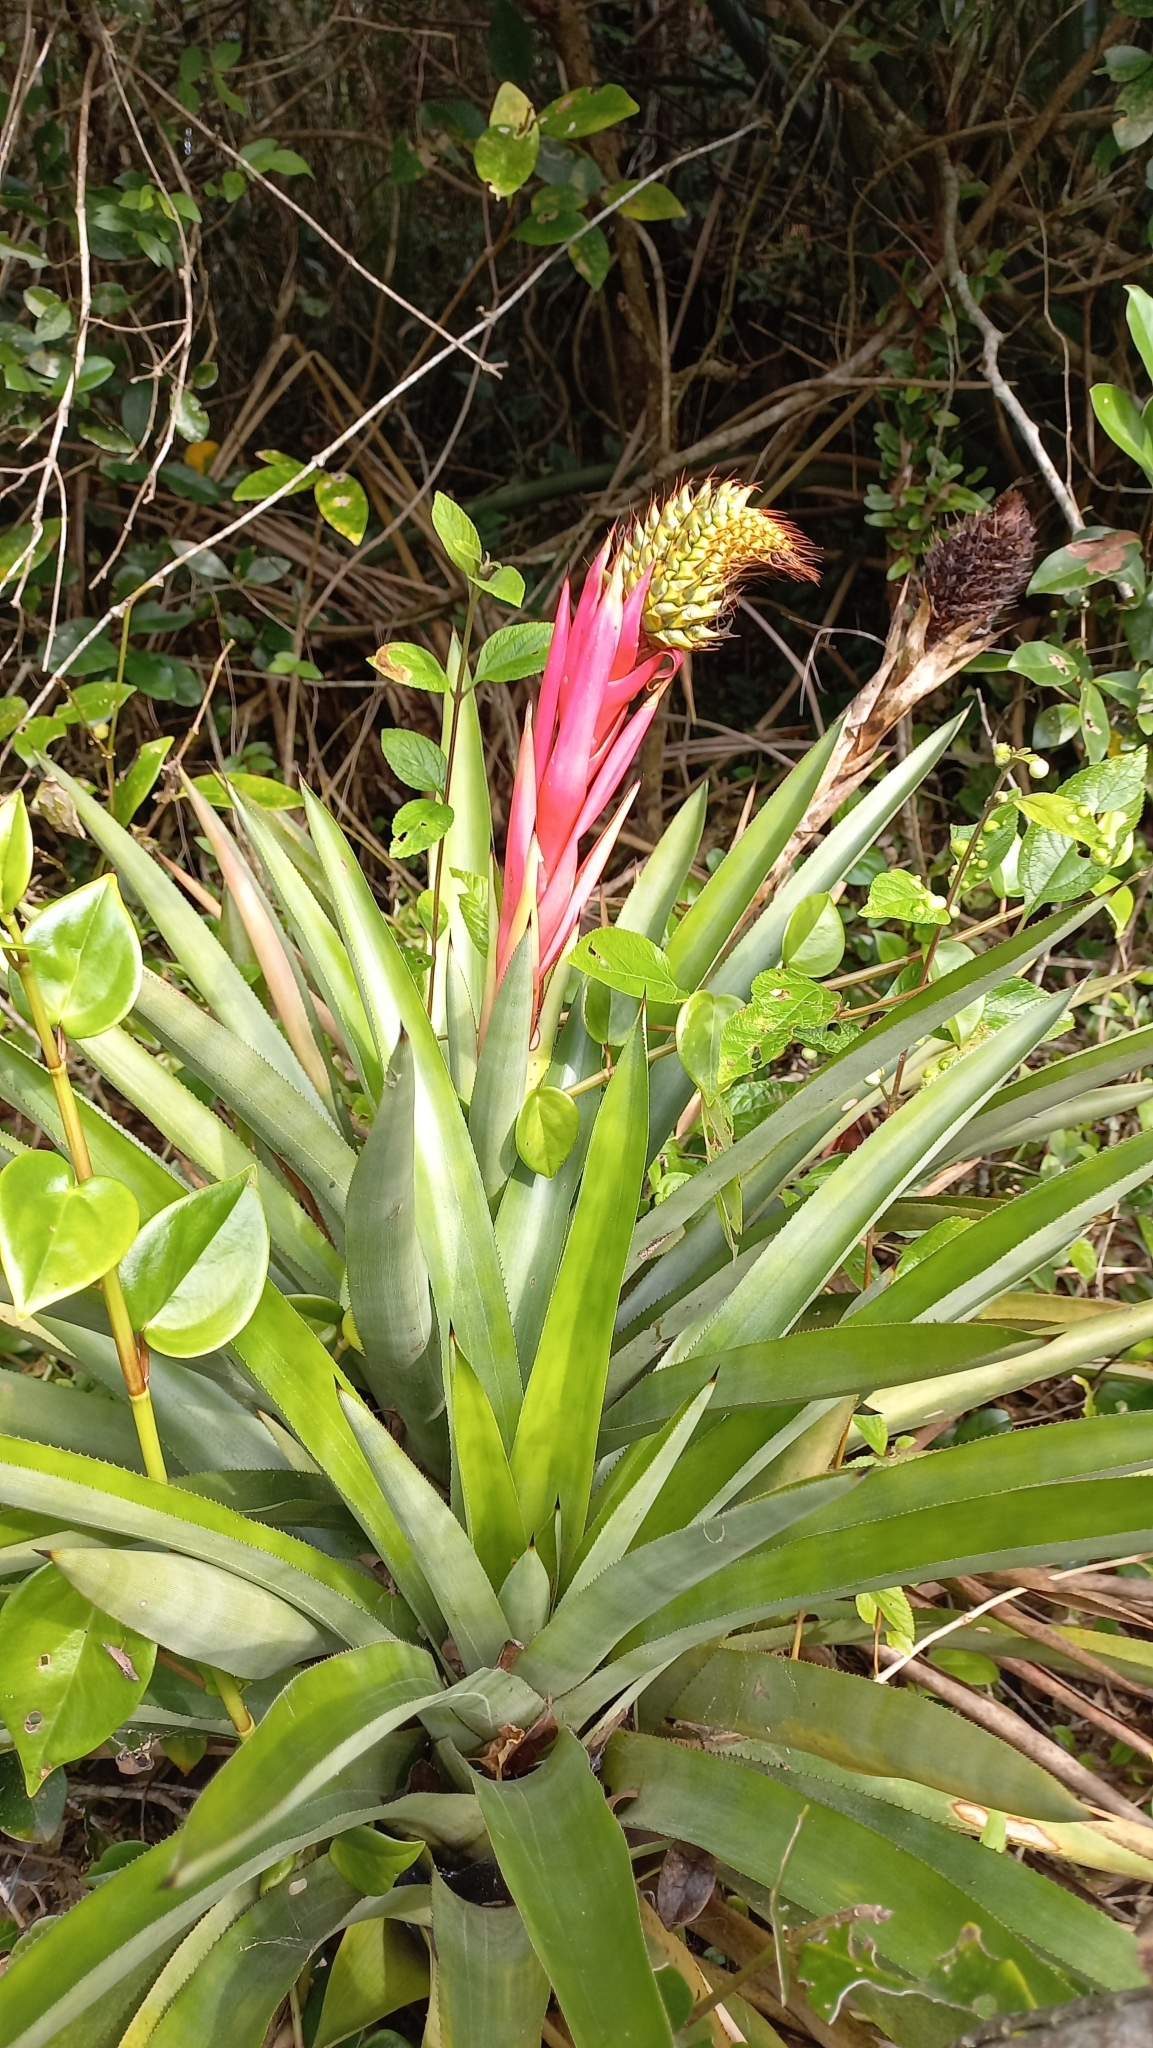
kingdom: Plantae
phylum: Tracheophyta
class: Liliopsida
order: Poales
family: Bromeliaceae
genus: Aechmea
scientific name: Aechmea ornata
